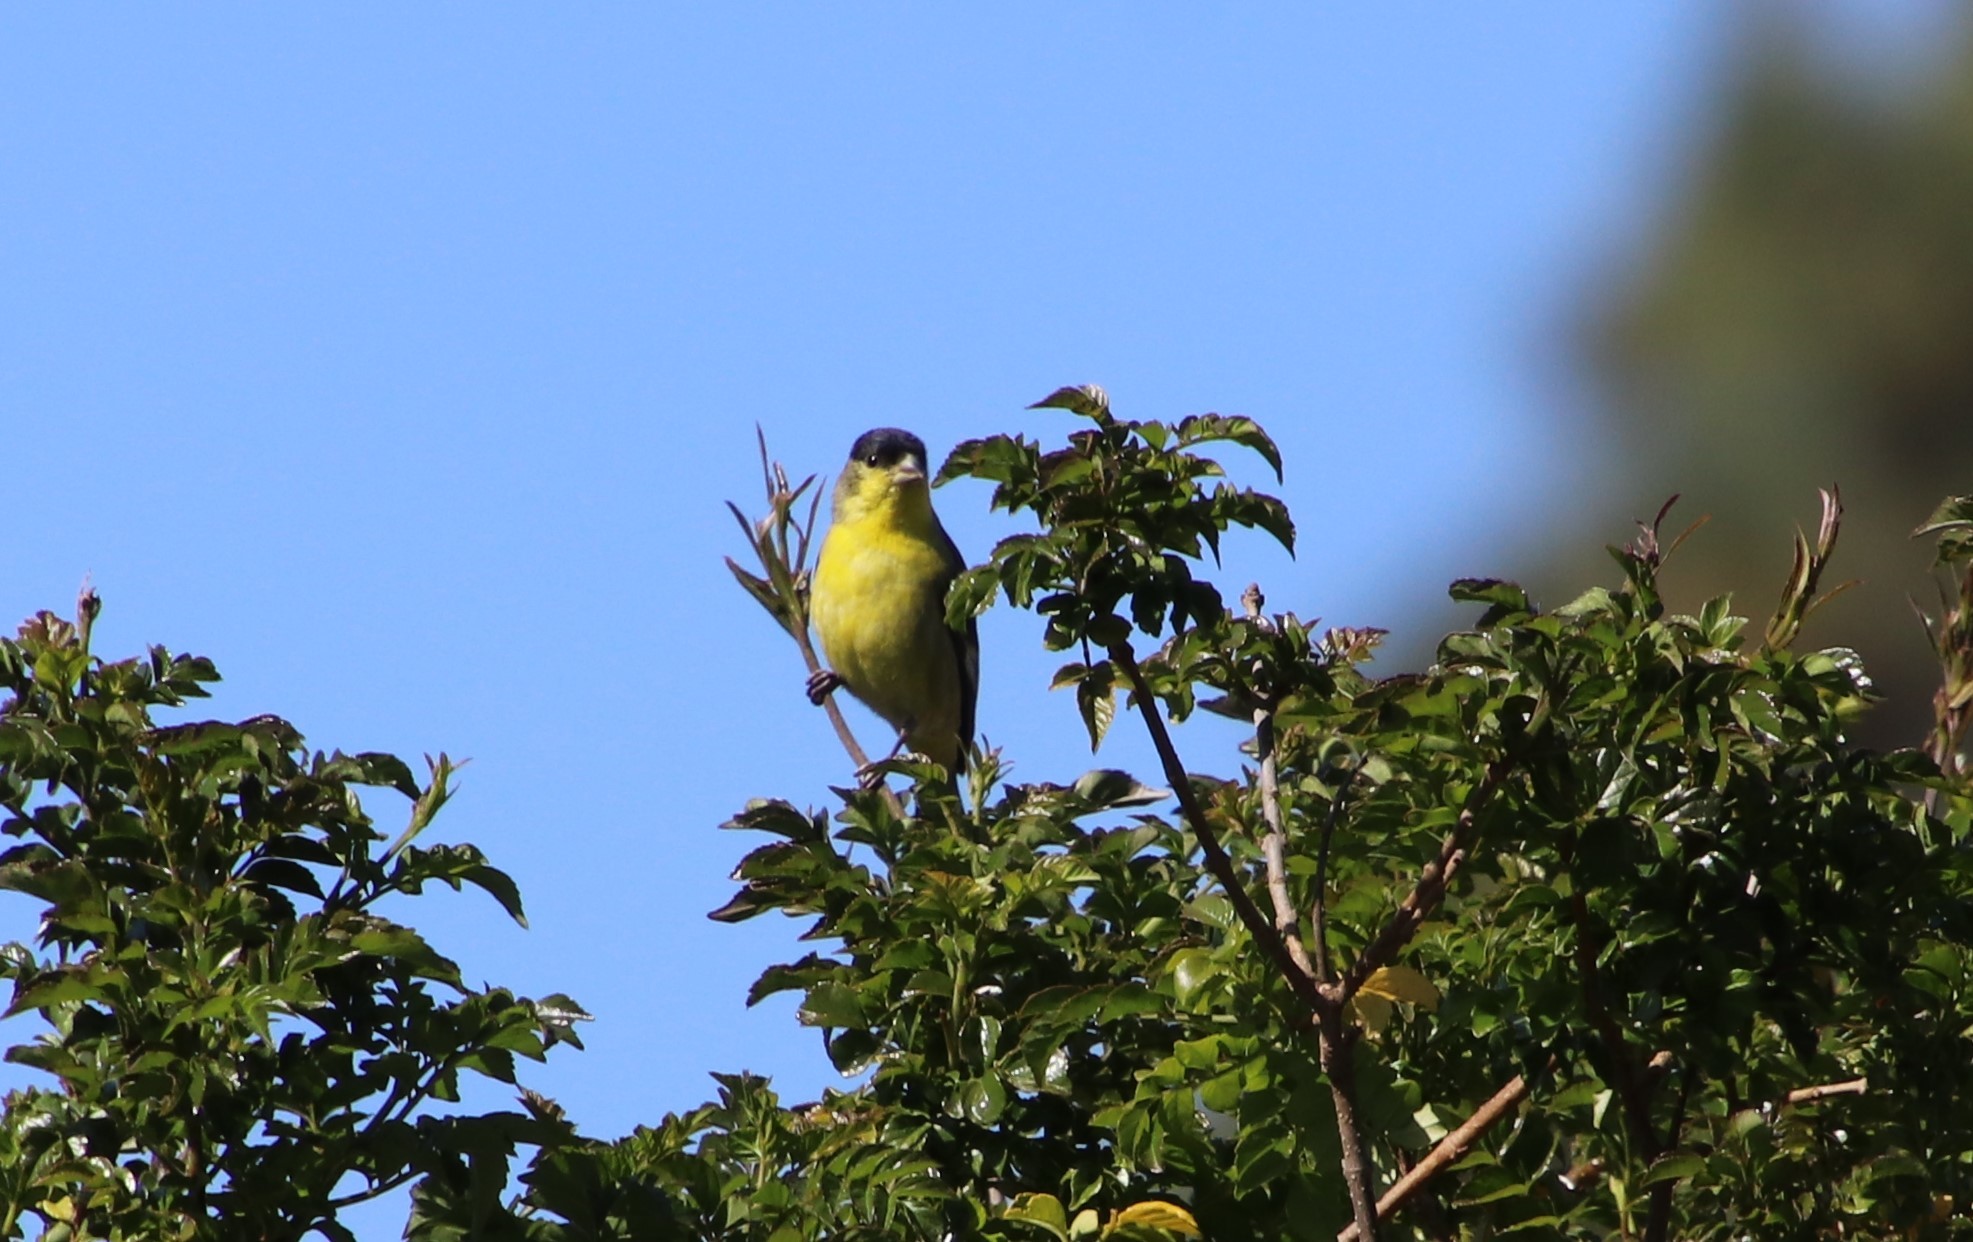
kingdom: Animalia
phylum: Chordata
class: Aves
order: Passeriformes
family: Fringillidae
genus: Spinus
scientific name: Spinus psaltria
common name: Lesser goldfinch
